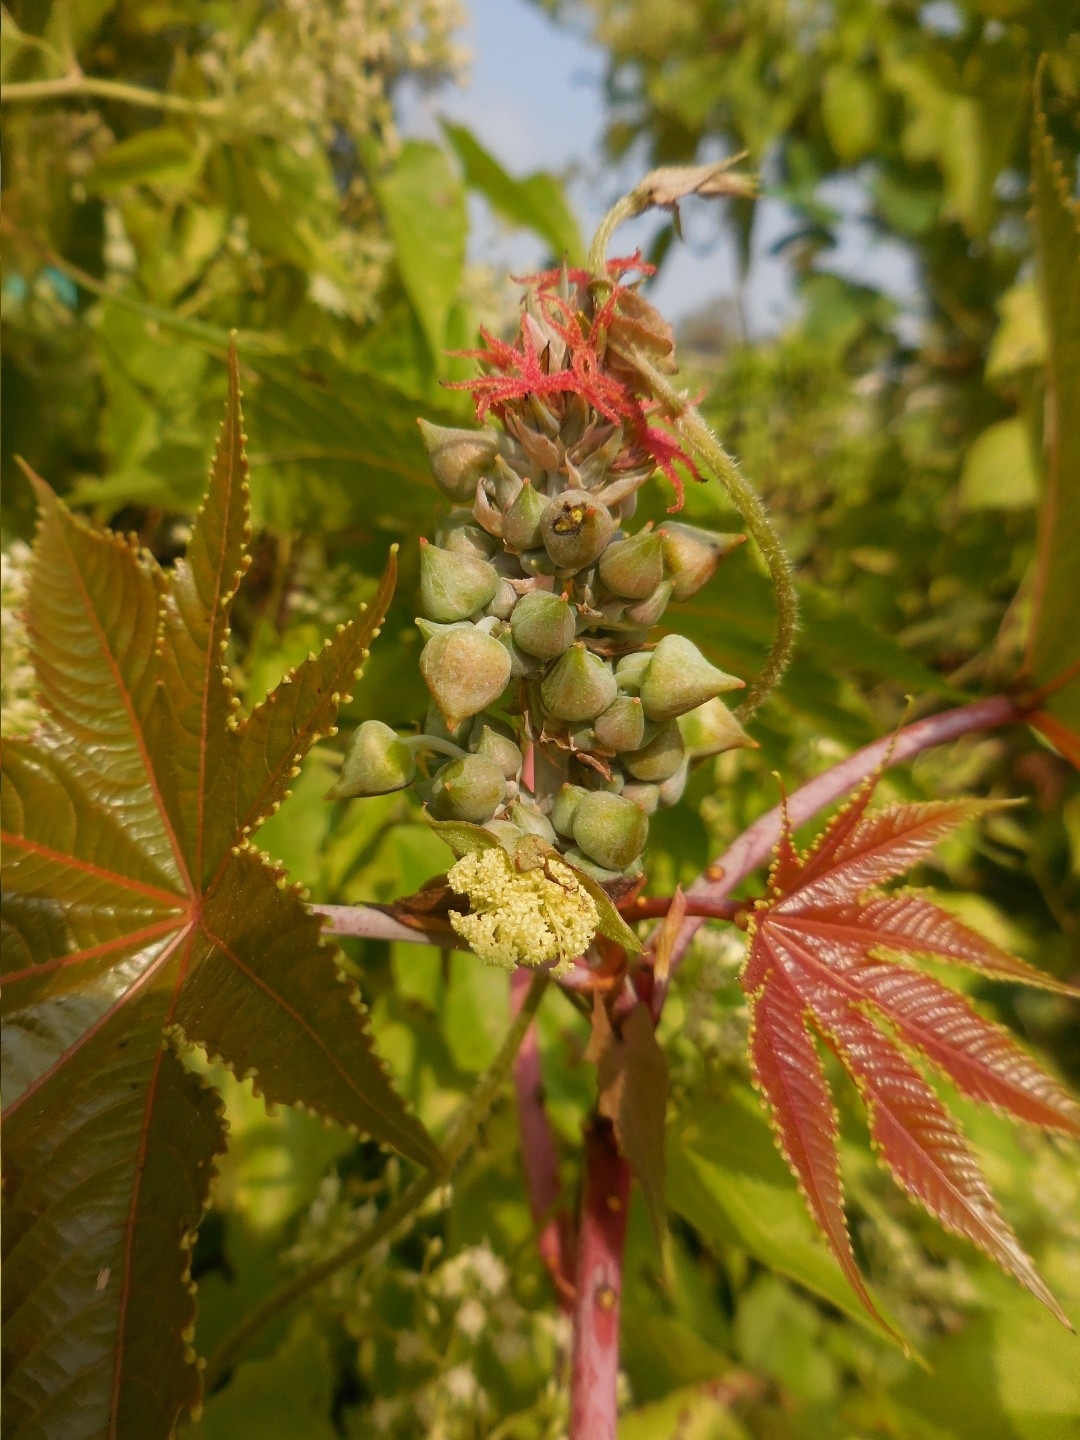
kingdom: Plantae
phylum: Tracheophyta
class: Magnoliopsida
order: Malpighiales
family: Euphorbiaceae
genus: Ricinus
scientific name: Ricinus communis
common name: Castor-oil-plant
